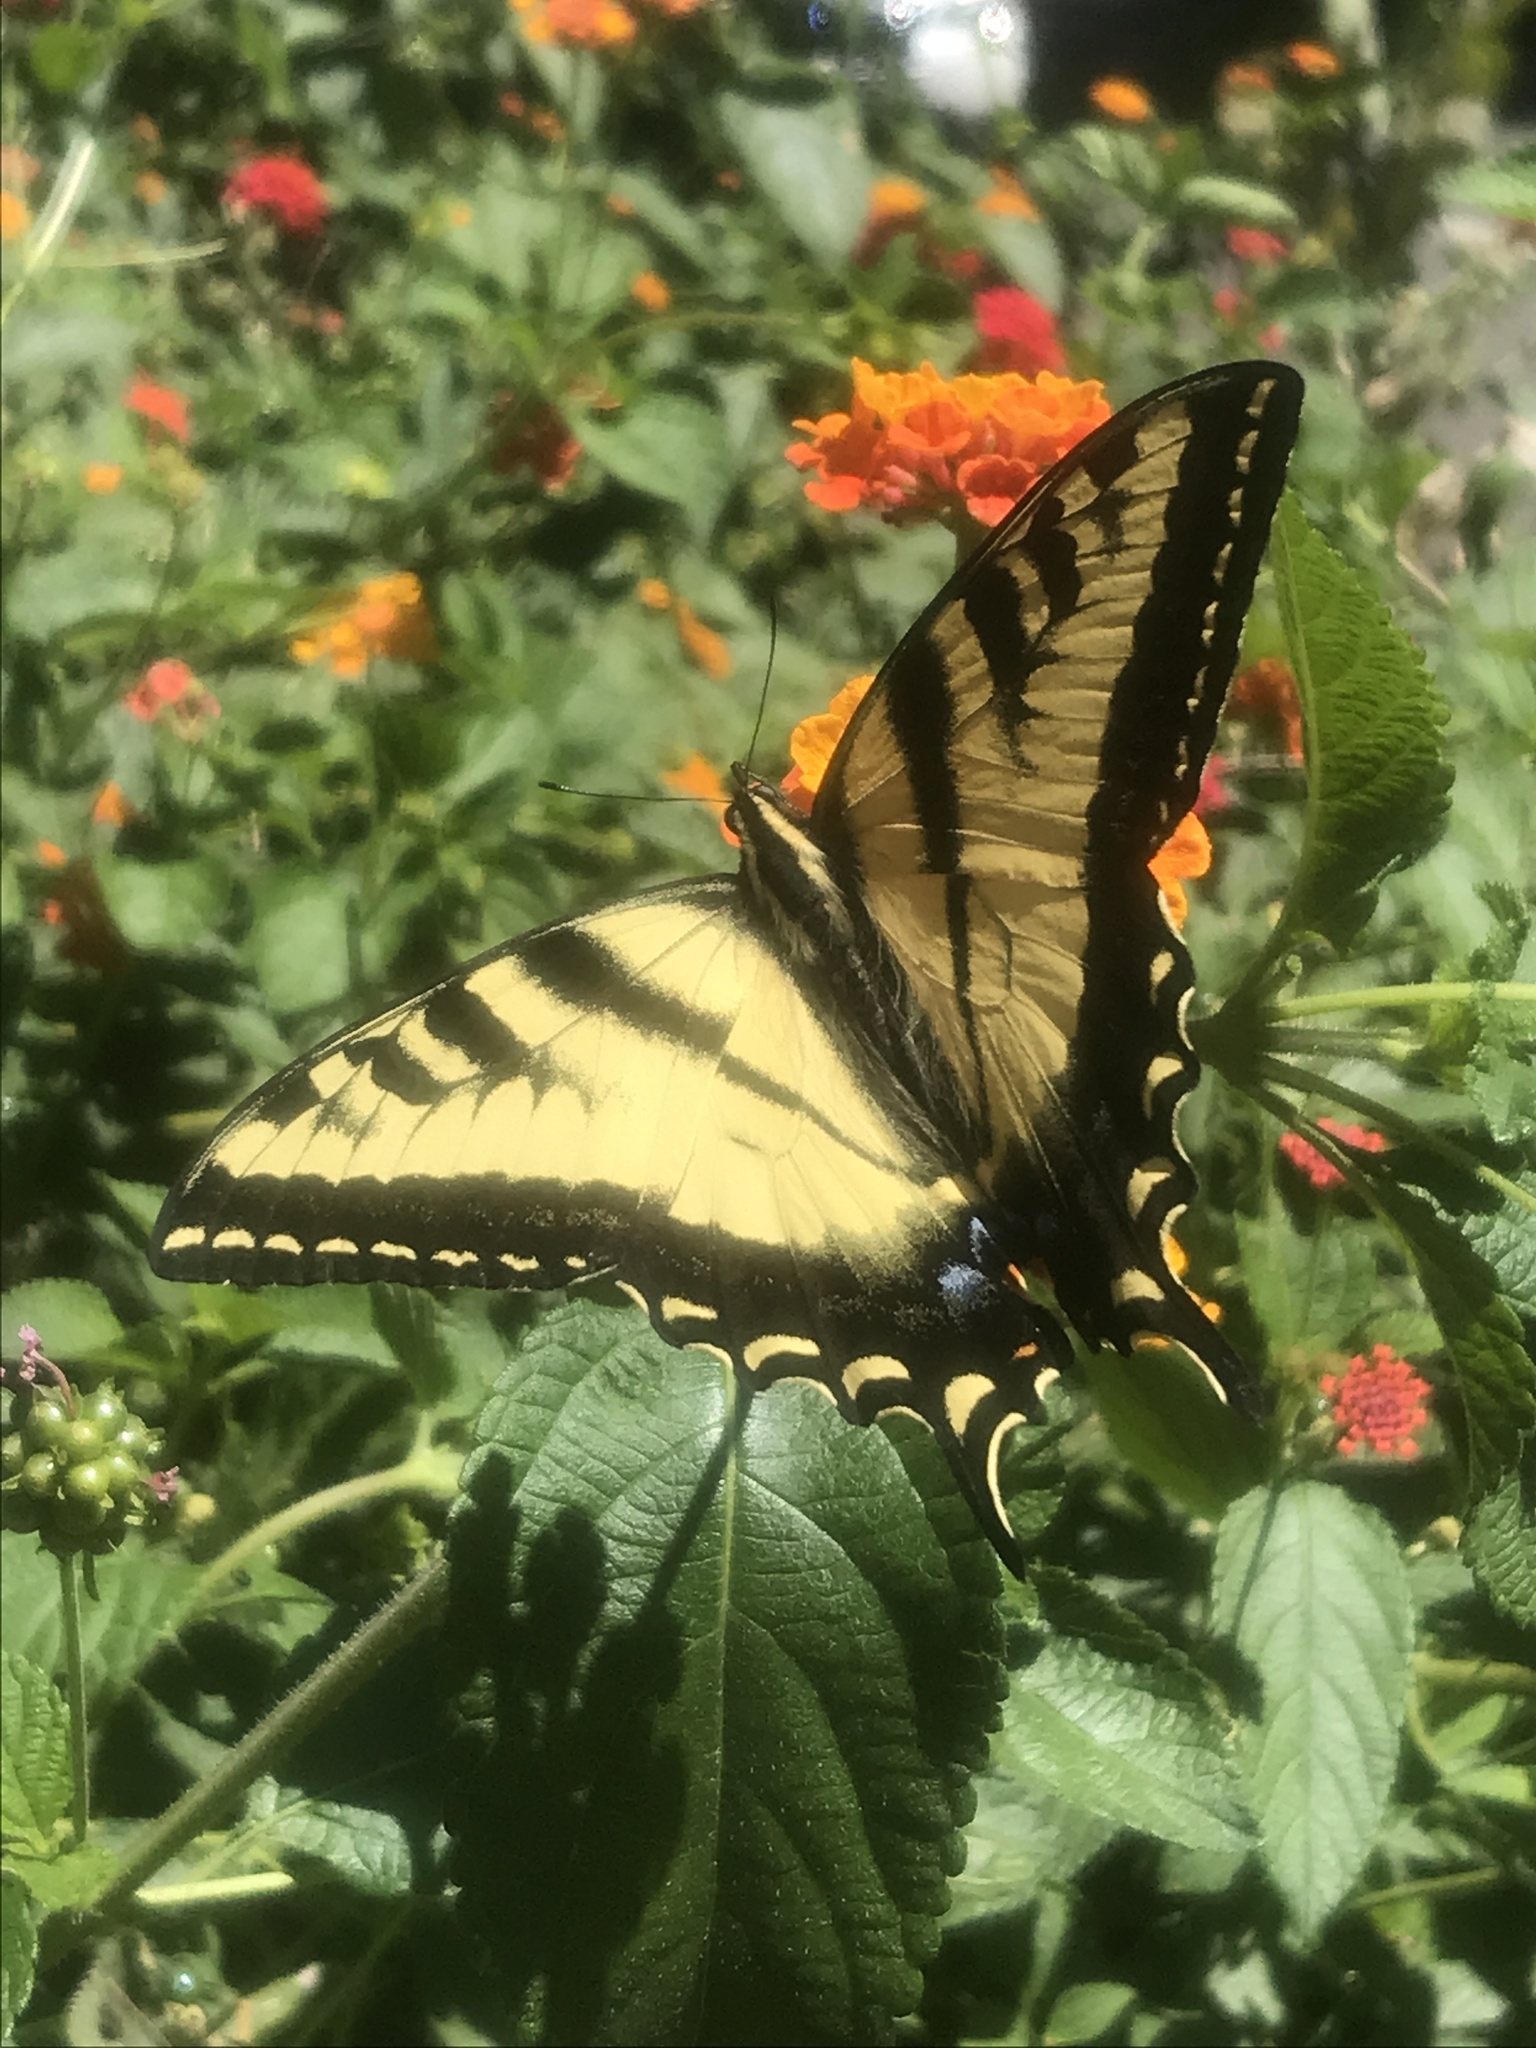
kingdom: Animalia
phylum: Arthropoda
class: Insecta
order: Lepidoptera
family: Papilionidae
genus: Papilio
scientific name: Papilio rutulus
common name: Western tiger swallowtail
